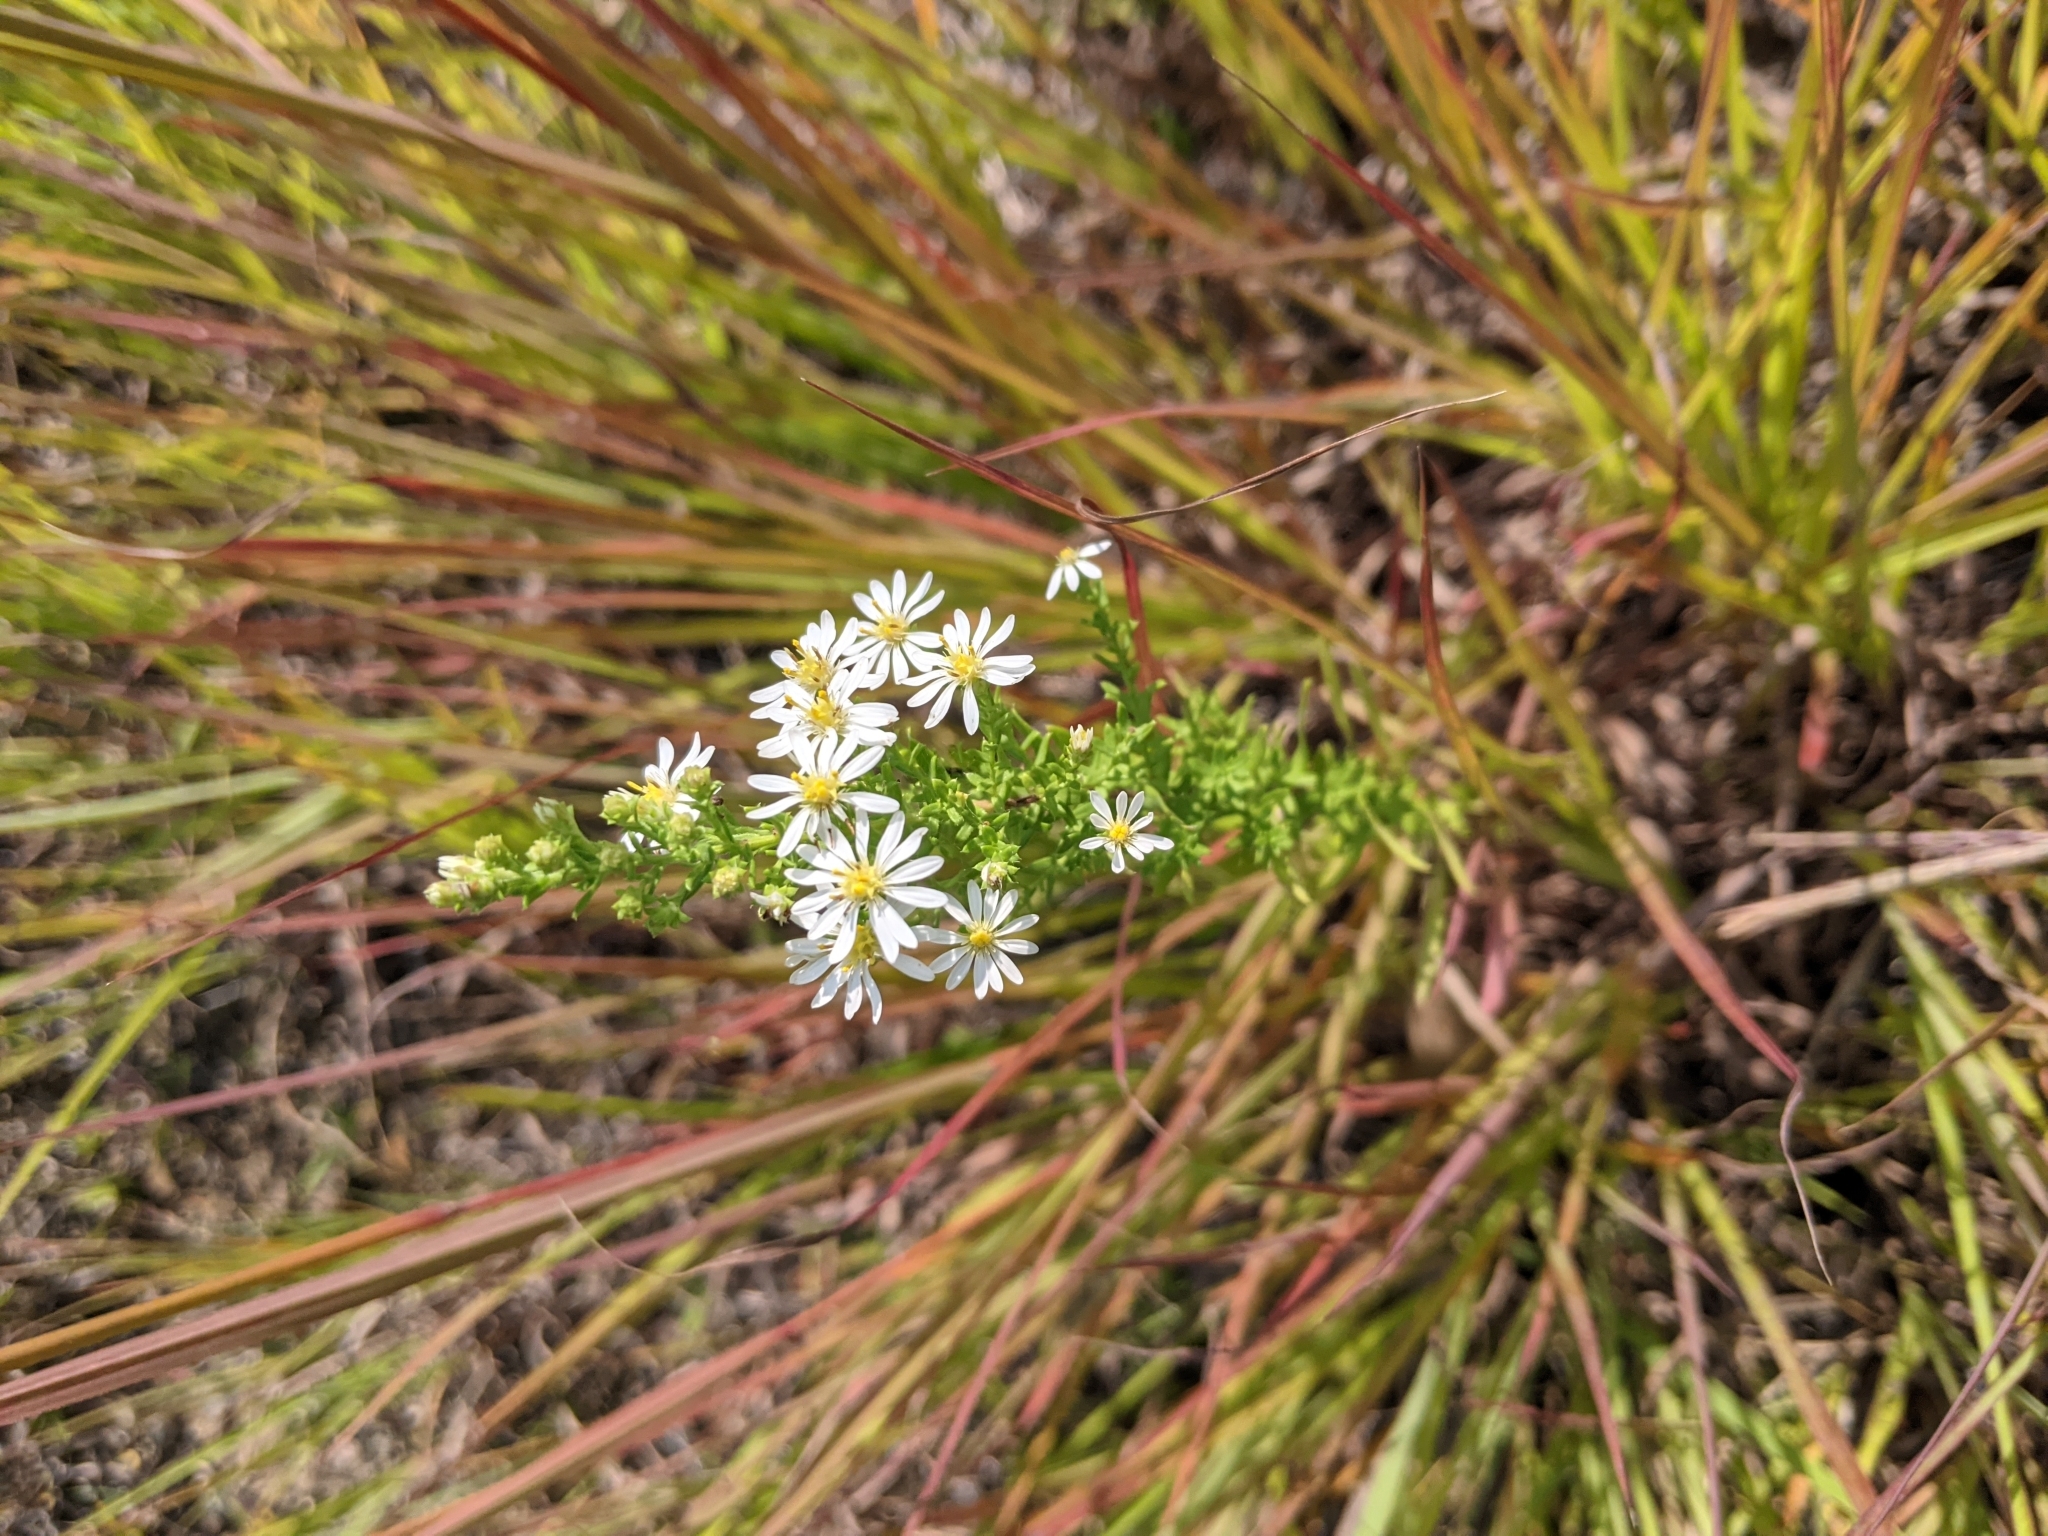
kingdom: Plantae
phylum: Tracheophyta
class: Magnoliopsida
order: Asterales
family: Asteraceae
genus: Symphyotrichum
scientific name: Symphyotrichum ericoides
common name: Heath aster
